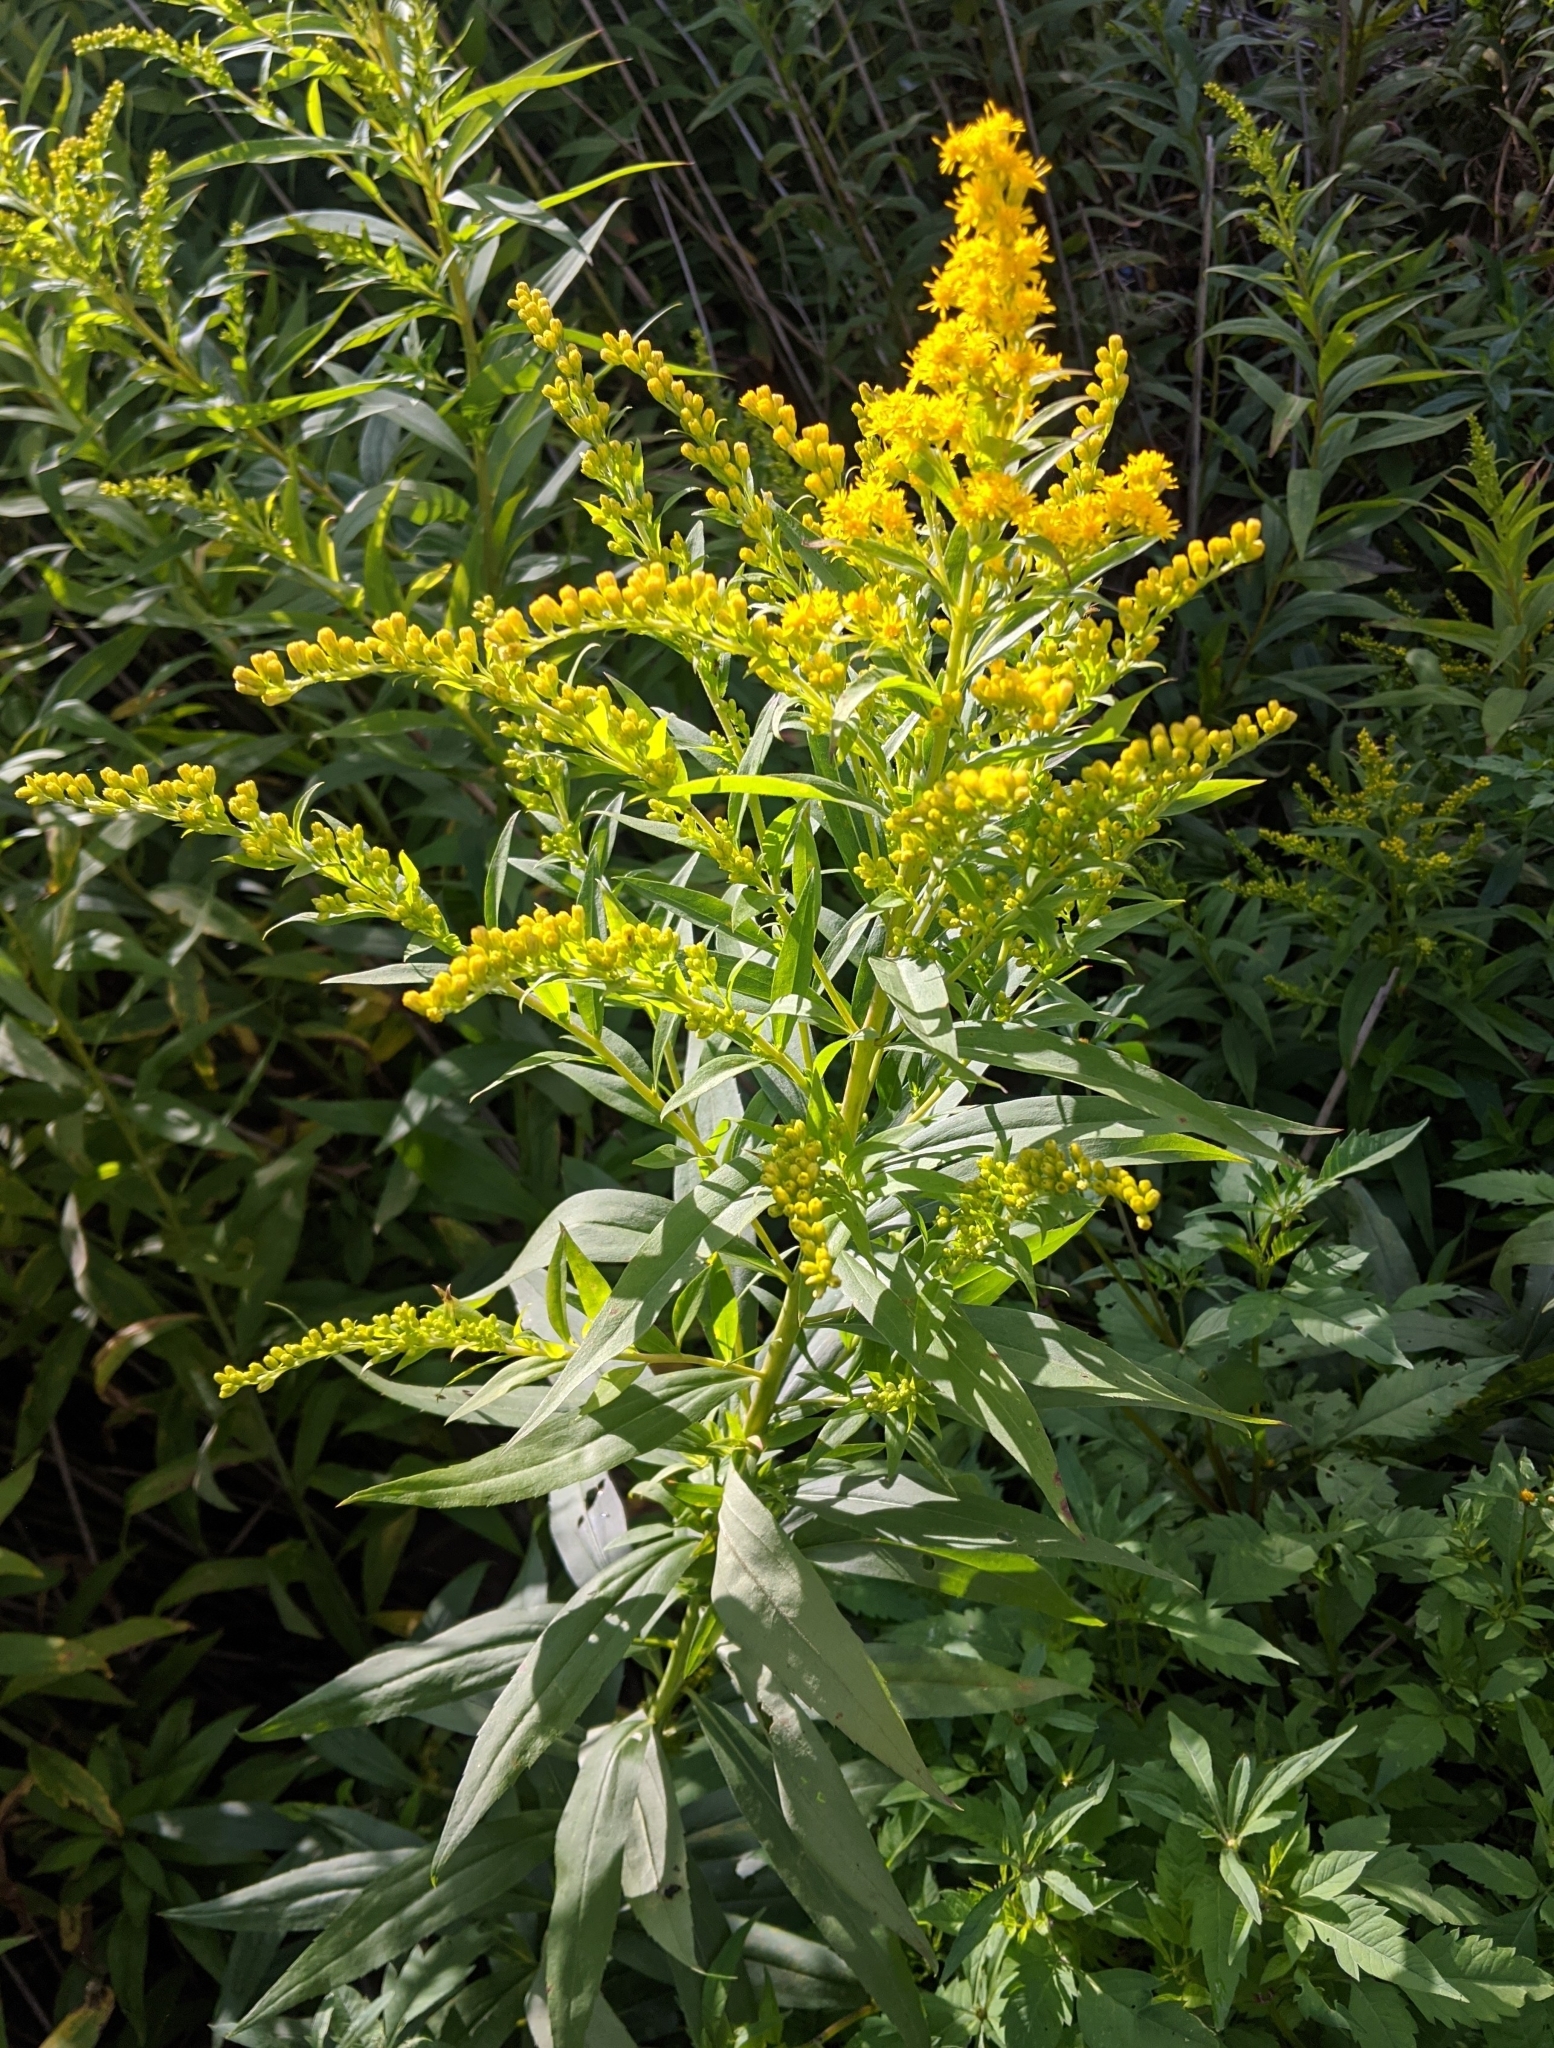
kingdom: Plantae
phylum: Tracheophyta
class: Magnoliopsida
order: Asterales
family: Asteraceae
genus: Solidago
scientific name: Solidago canadensis
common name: Canada goldenrod
